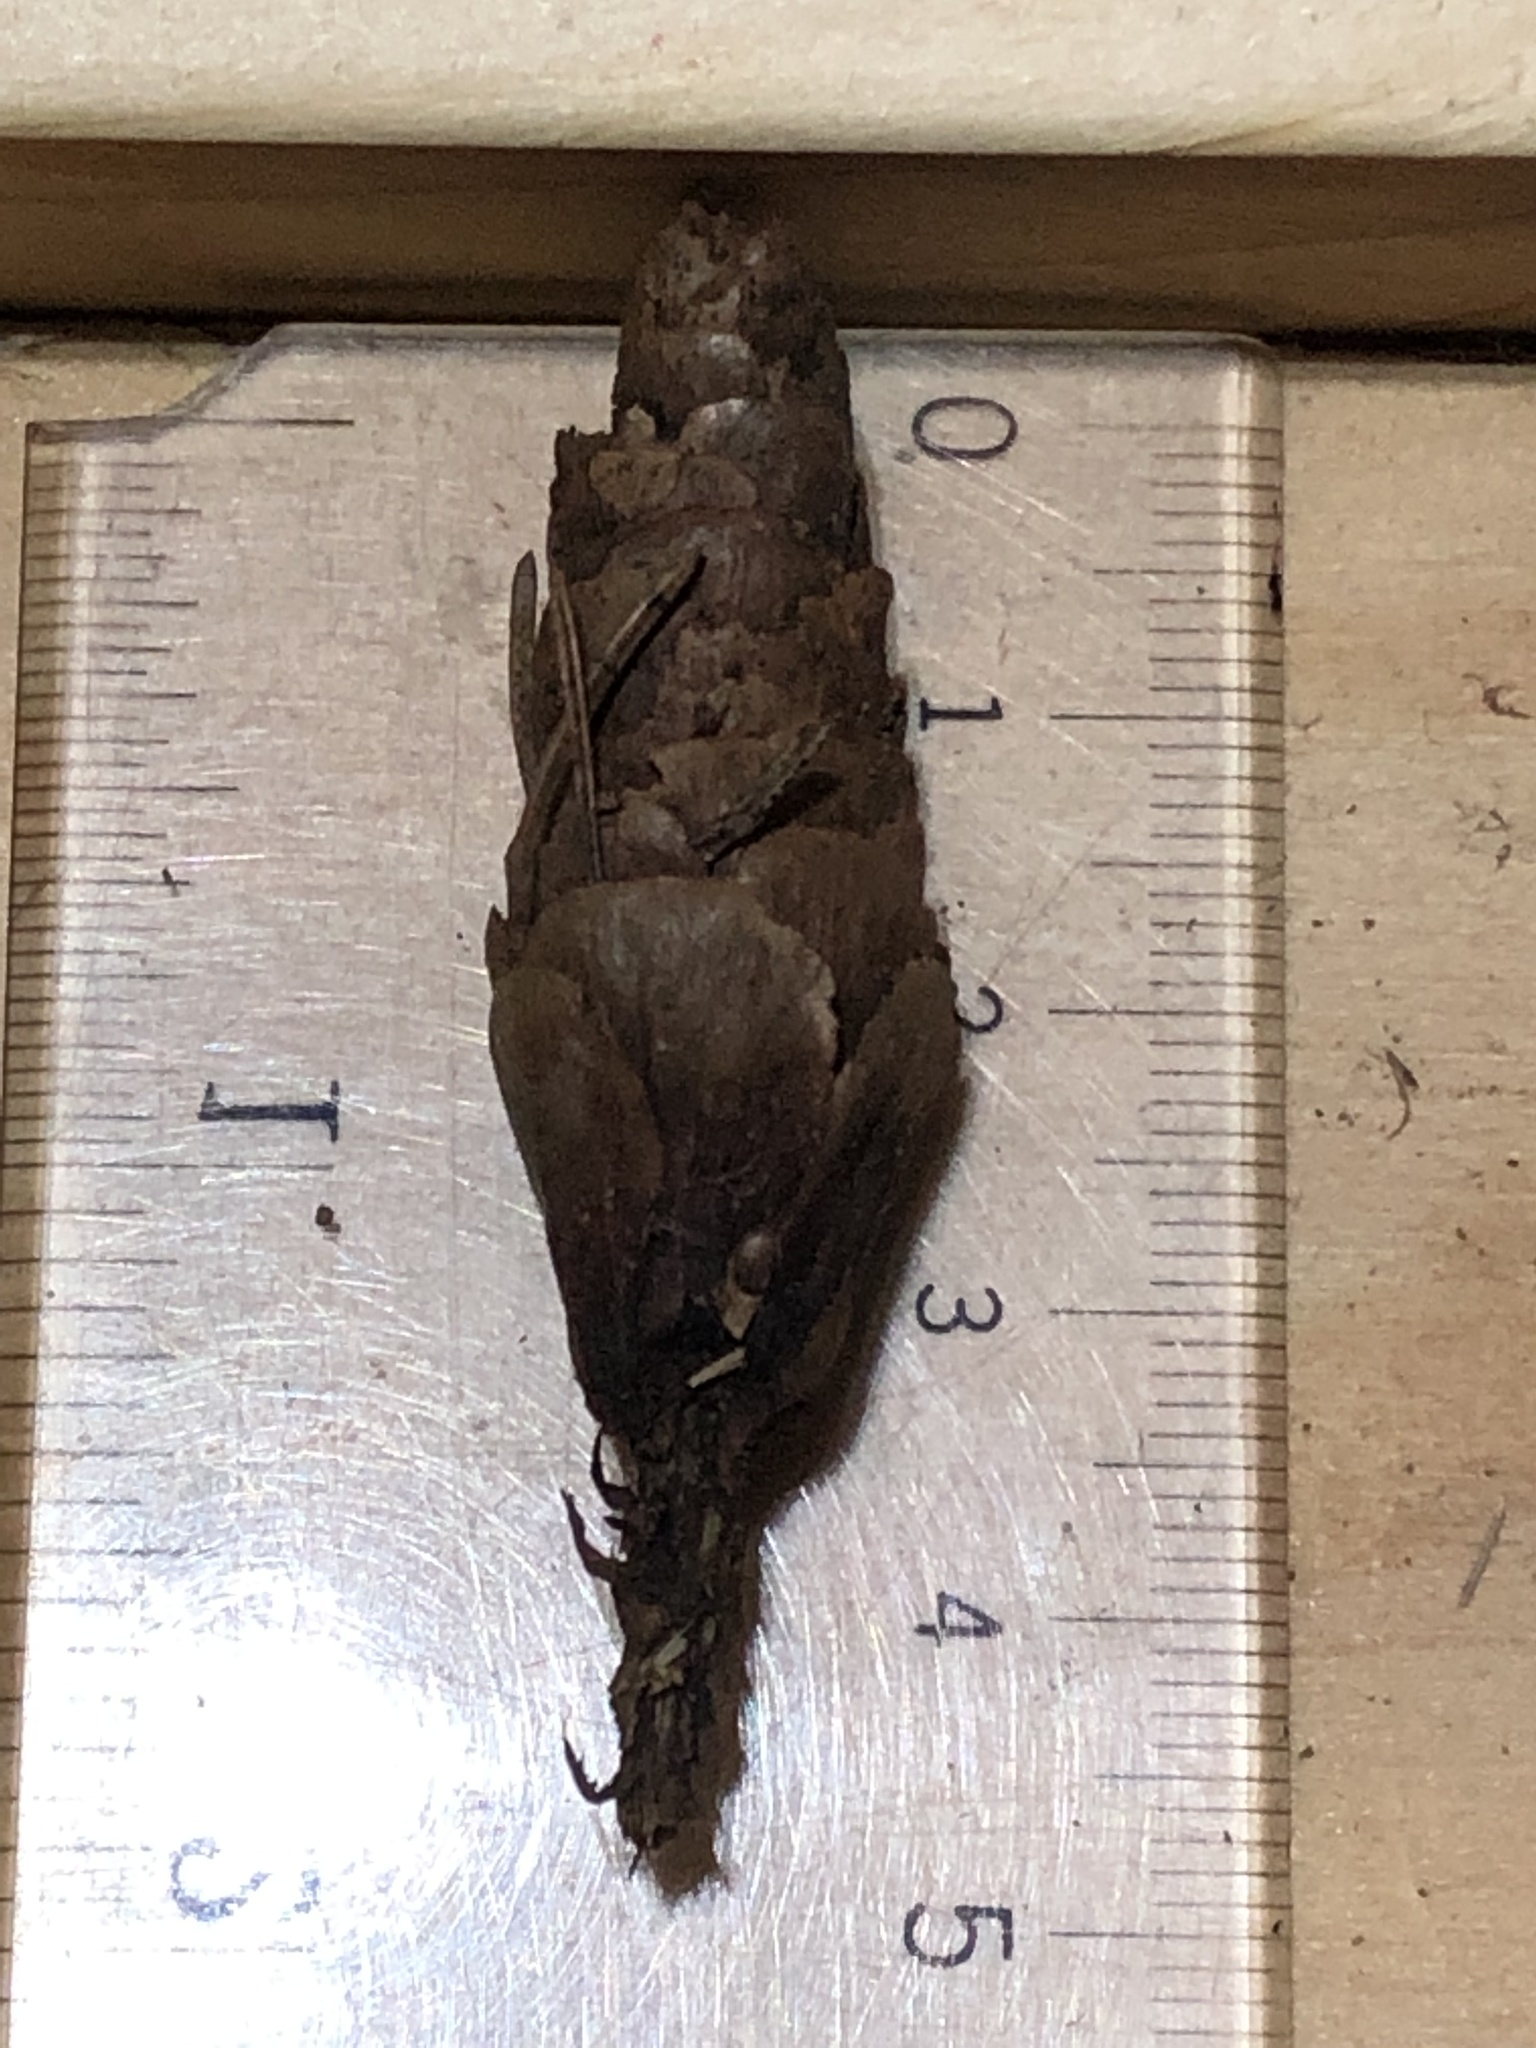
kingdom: Plantae
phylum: Tracheophyta
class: Pinopsida
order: Pinales
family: Pinaceae
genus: Picea
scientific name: Picea glauca
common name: White spruce
